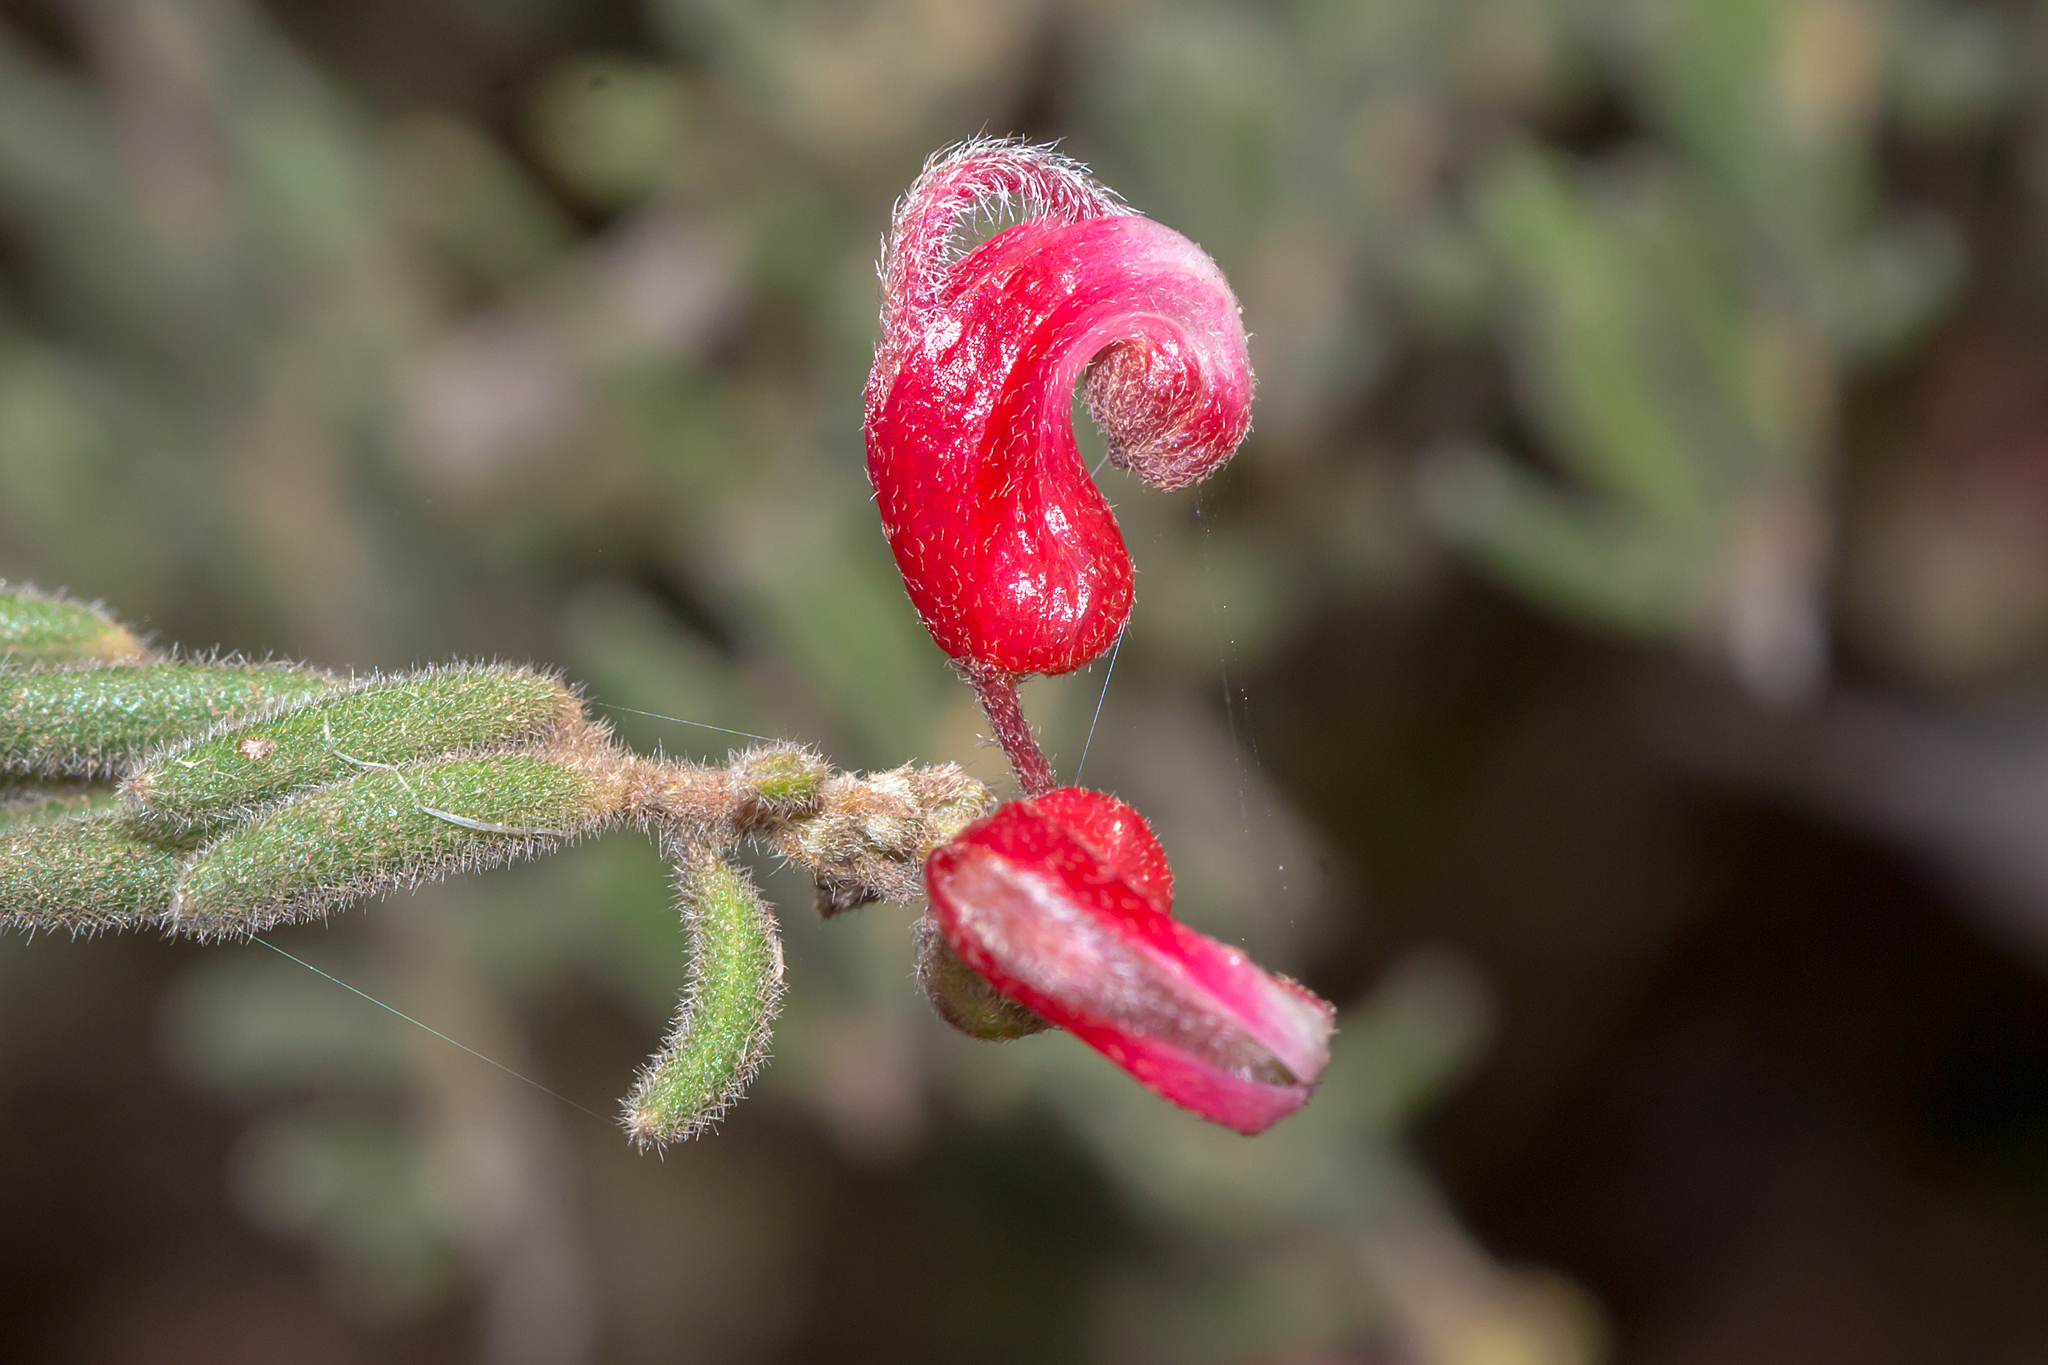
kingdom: Plantae
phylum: Tracheophyta
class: Magnoliopsida
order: Proteales
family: Proteaceae
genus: Grevillea
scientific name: Grevillea alpina
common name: Catclaws grevillea
